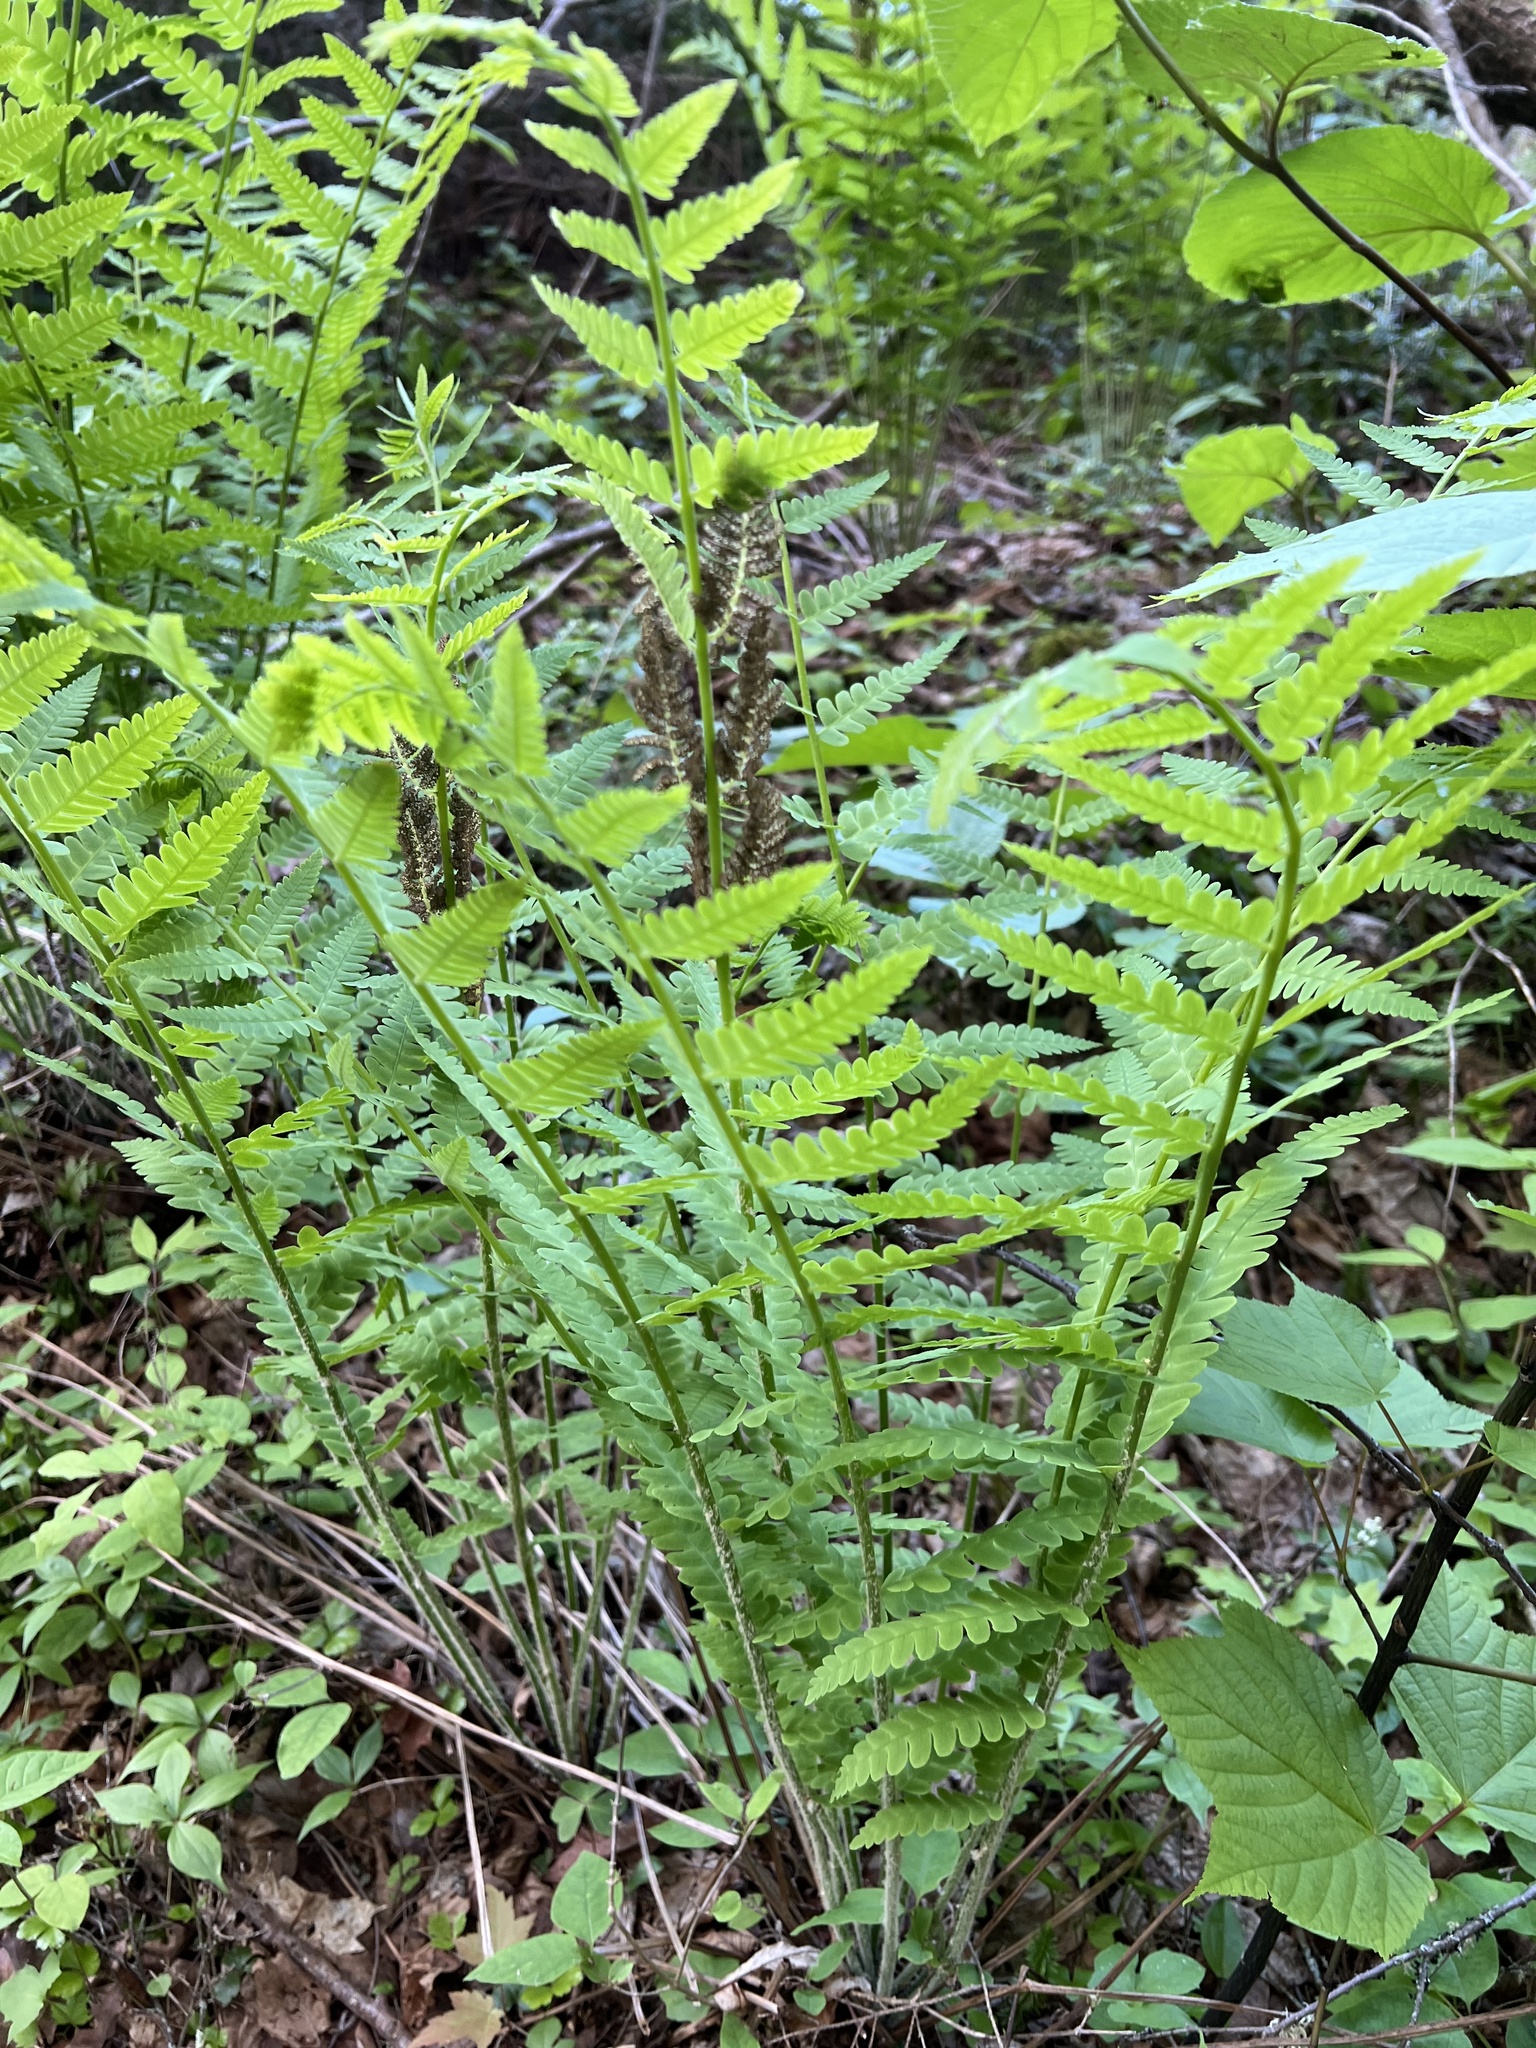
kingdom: Plantae
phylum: Tracheophyta
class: Polypodiopsida
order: Osmundales
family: Osmundaceae
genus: Claytosmunda
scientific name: Claytosmunda claytoniana
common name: Clayton's fern
